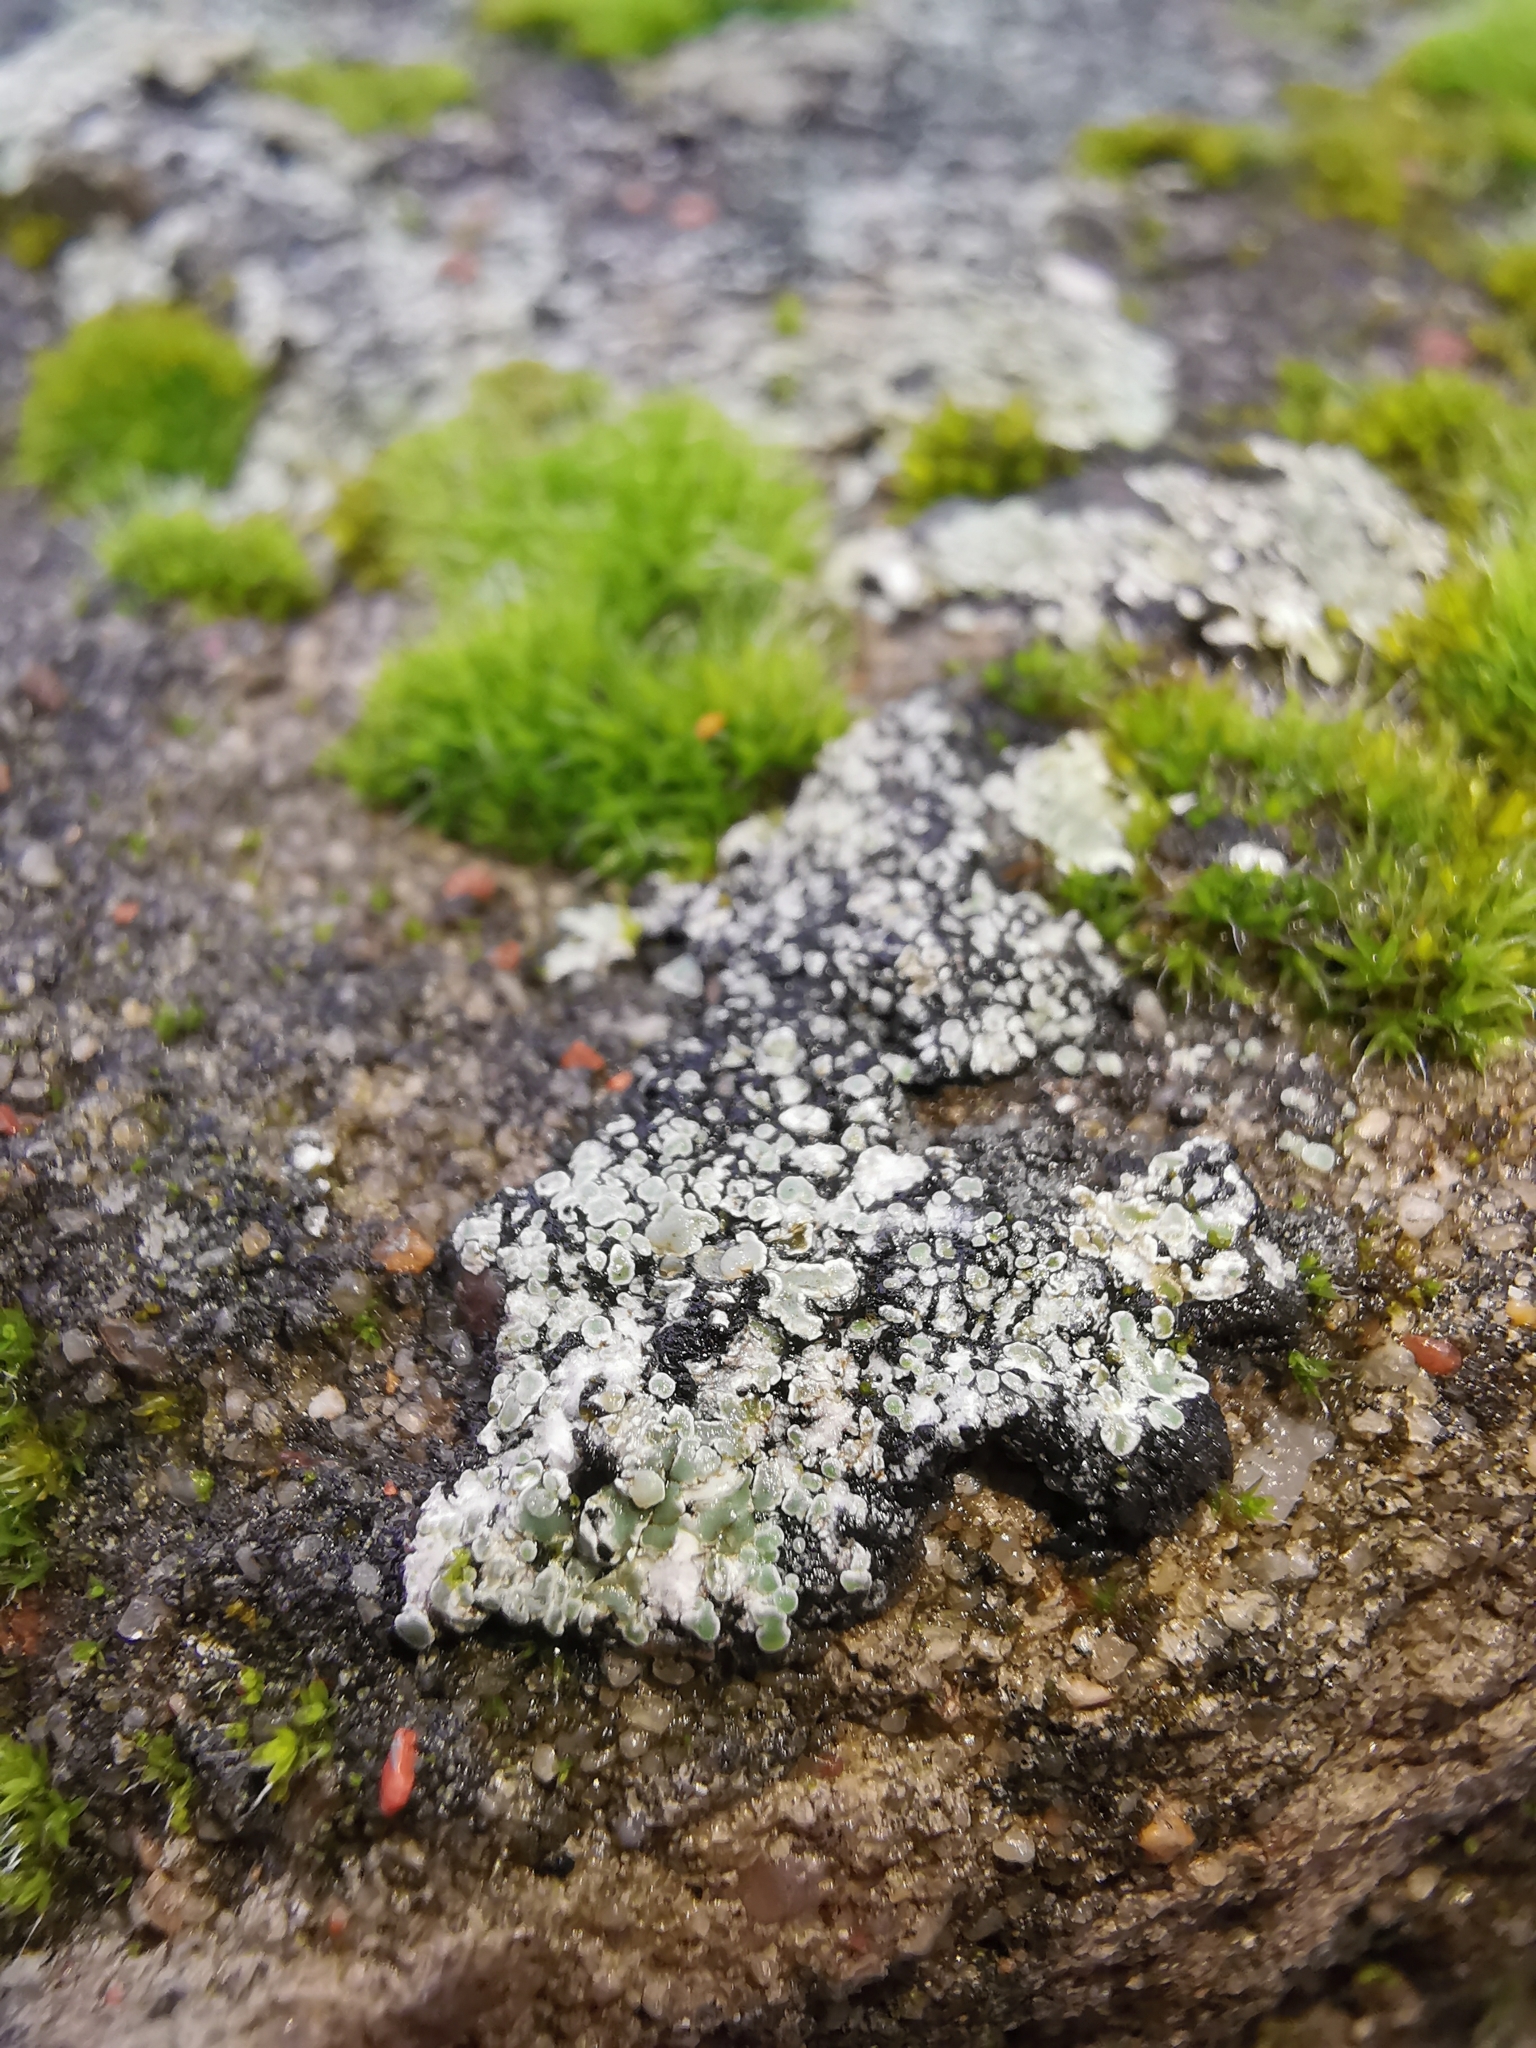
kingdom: Fungi
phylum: Ascomycota
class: Lecanoromycetes
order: Lecanorales
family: Lecanoraceae
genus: Protoparmeliopsis
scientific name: Protoparmeliopsis muralis
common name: Stonewall rim lichen
